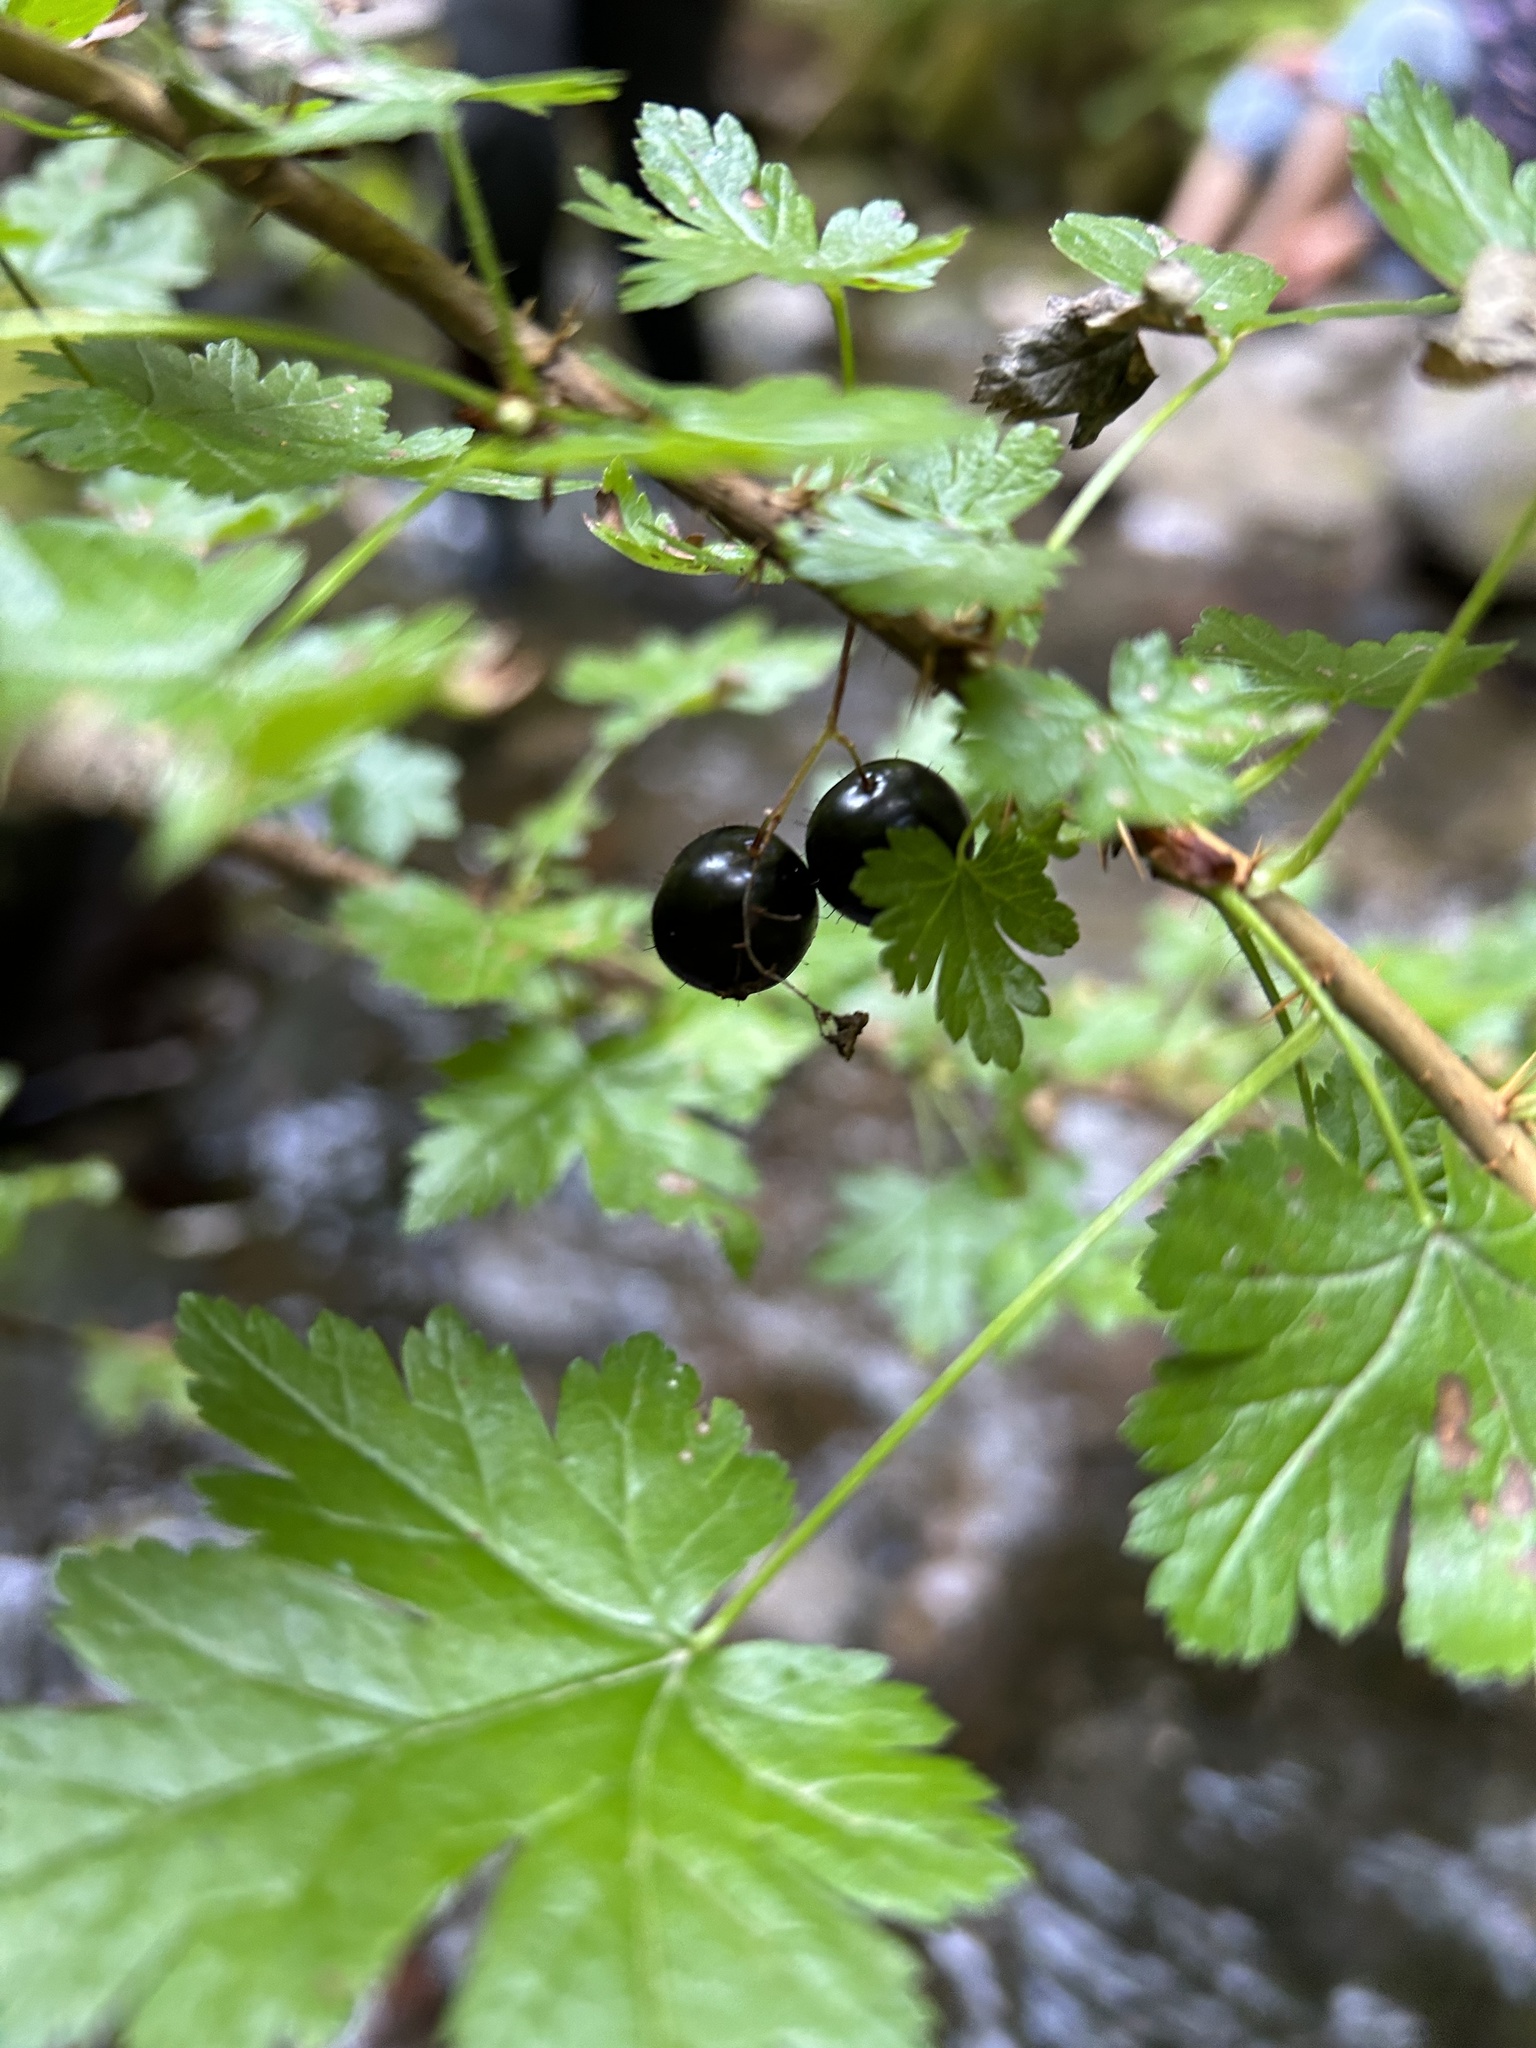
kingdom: Plantae
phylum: Tracheophyta
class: Magnoliopsida
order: Saxifragales
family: Grossulariaceae
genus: Ribes
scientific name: Ribes lacustre
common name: Black gooseberry
